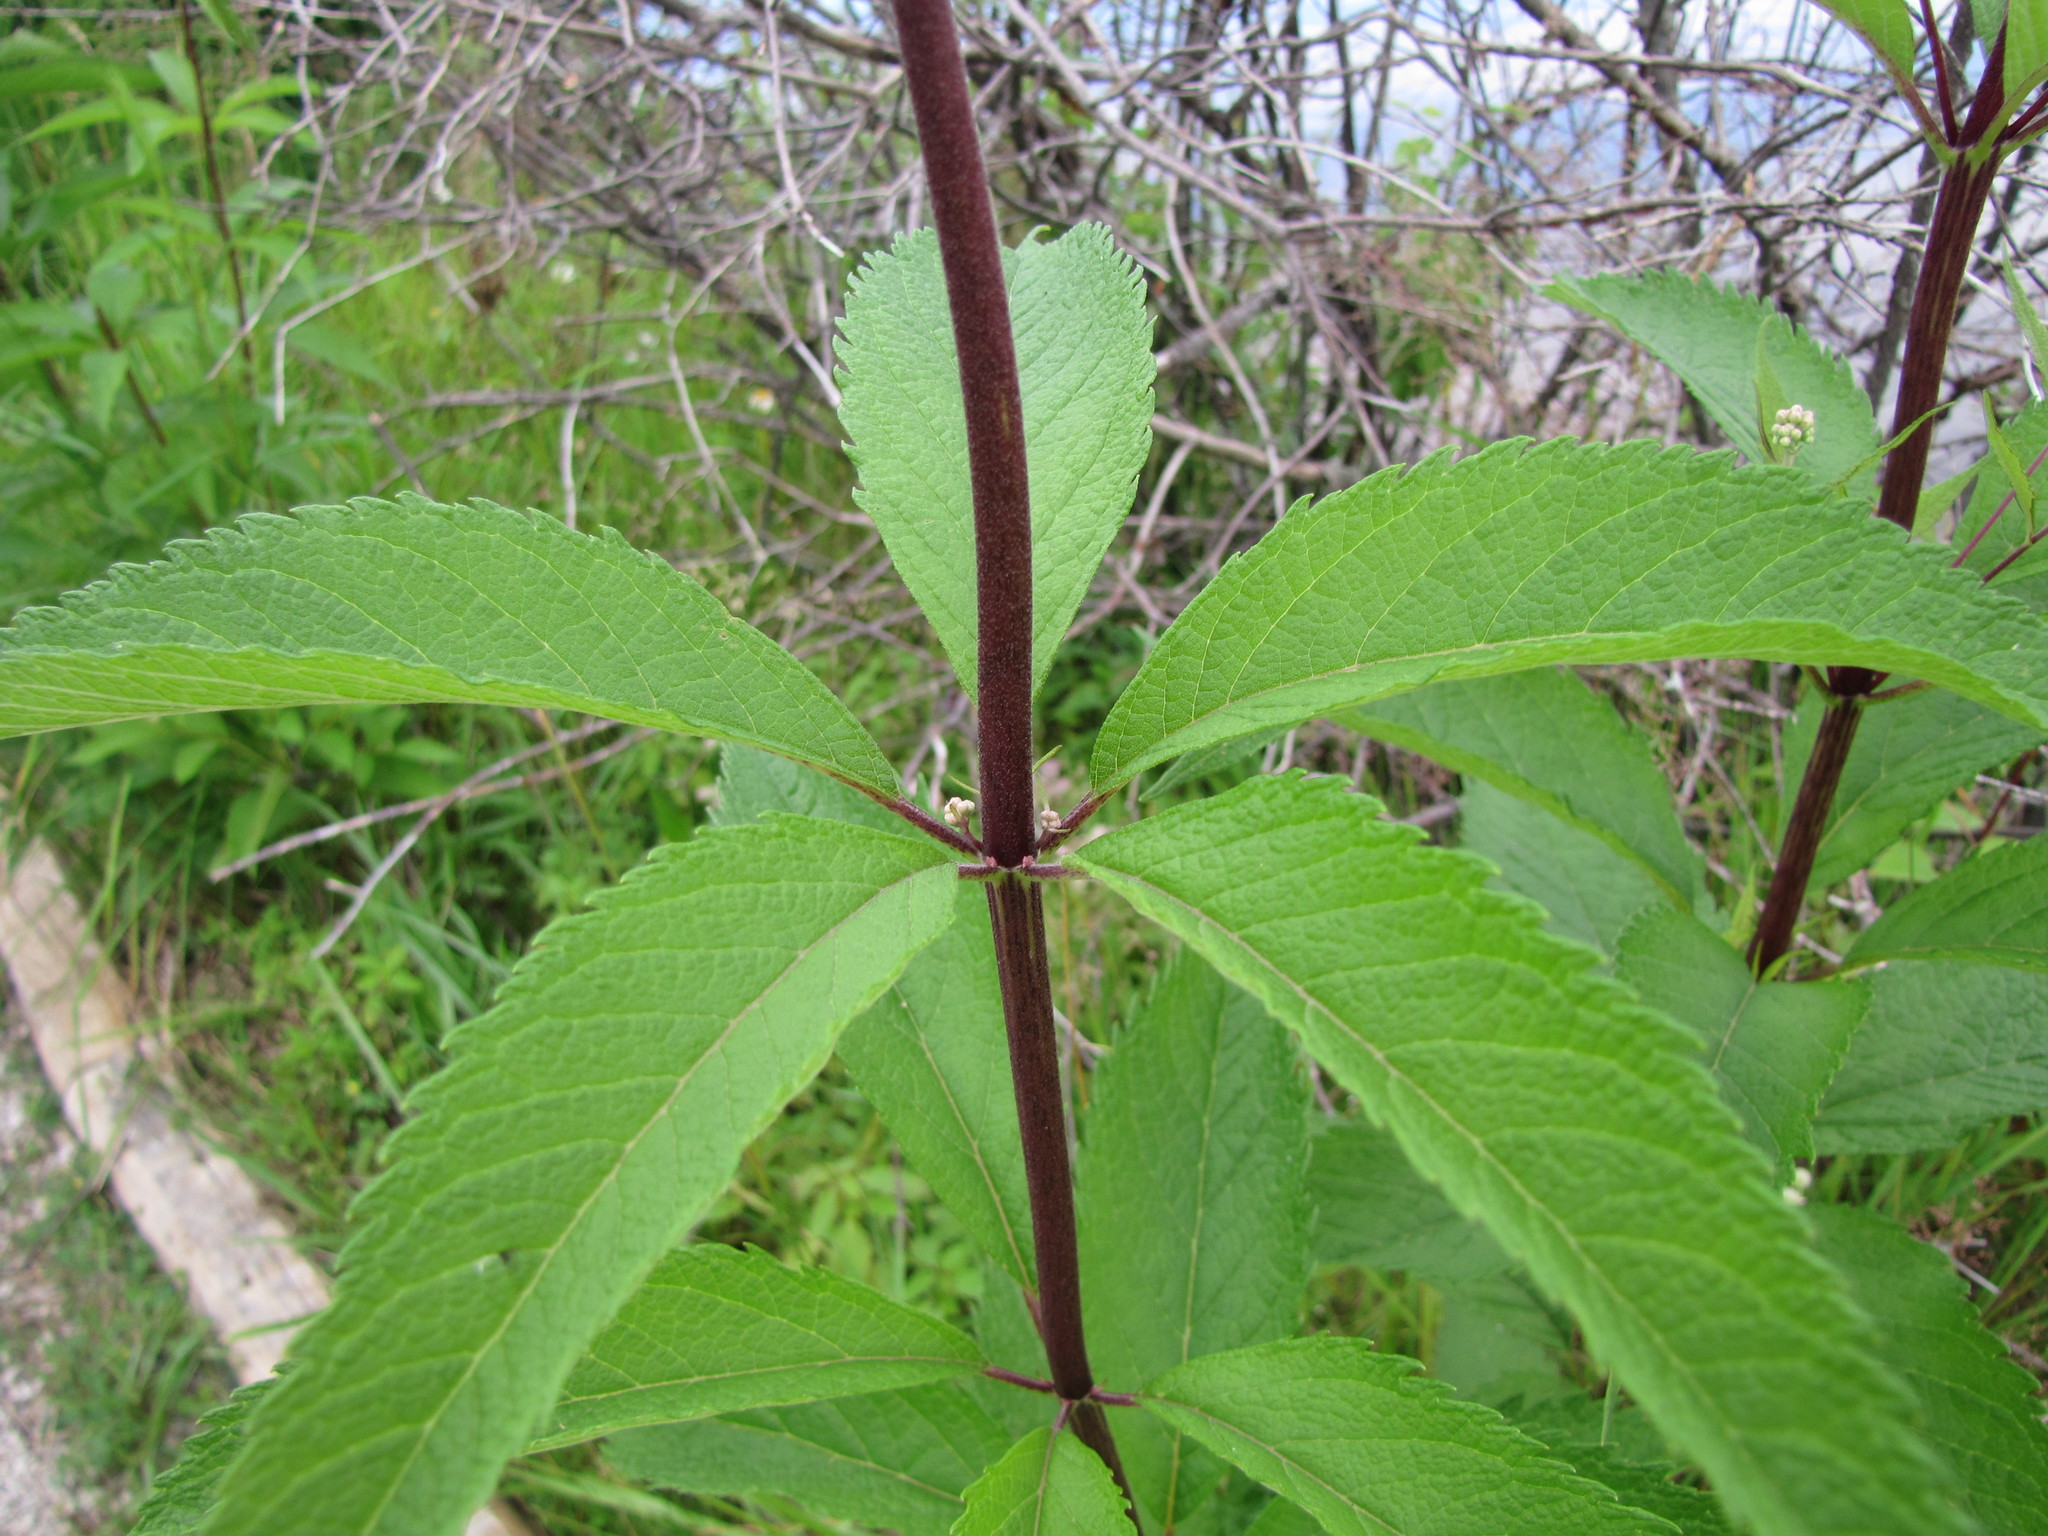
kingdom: Plantae
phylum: Tracheophyta
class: Magnoliopsida
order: Asterales
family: Asteraceae
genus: Eutrochium
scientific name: Eutrochium maculatum
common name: Spotted joe pye weed
